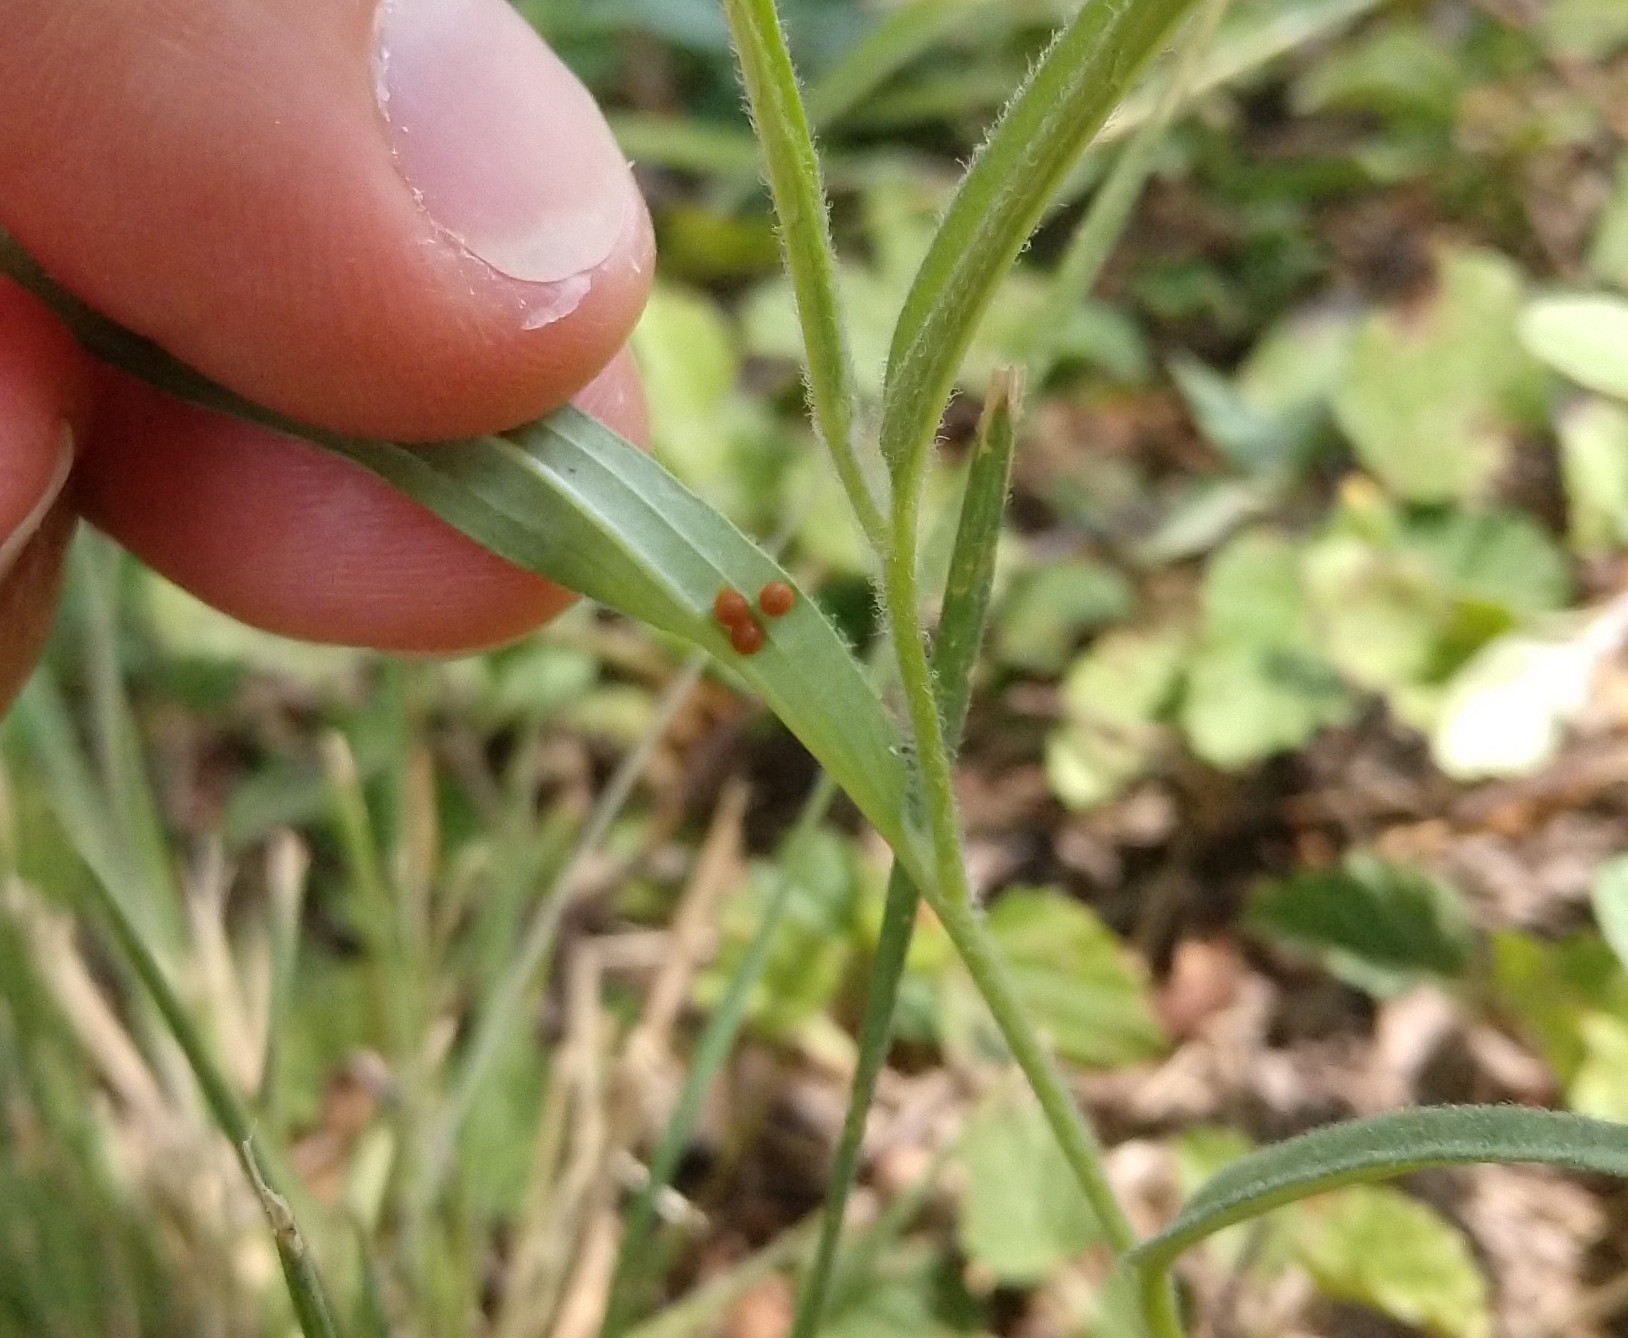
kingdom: Animalia
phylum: Arthropoda
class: Insecta
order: Lepidoptera
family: Papilionidae
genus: Battus
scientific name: Battus philenor
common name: Pipevine swallowtail
